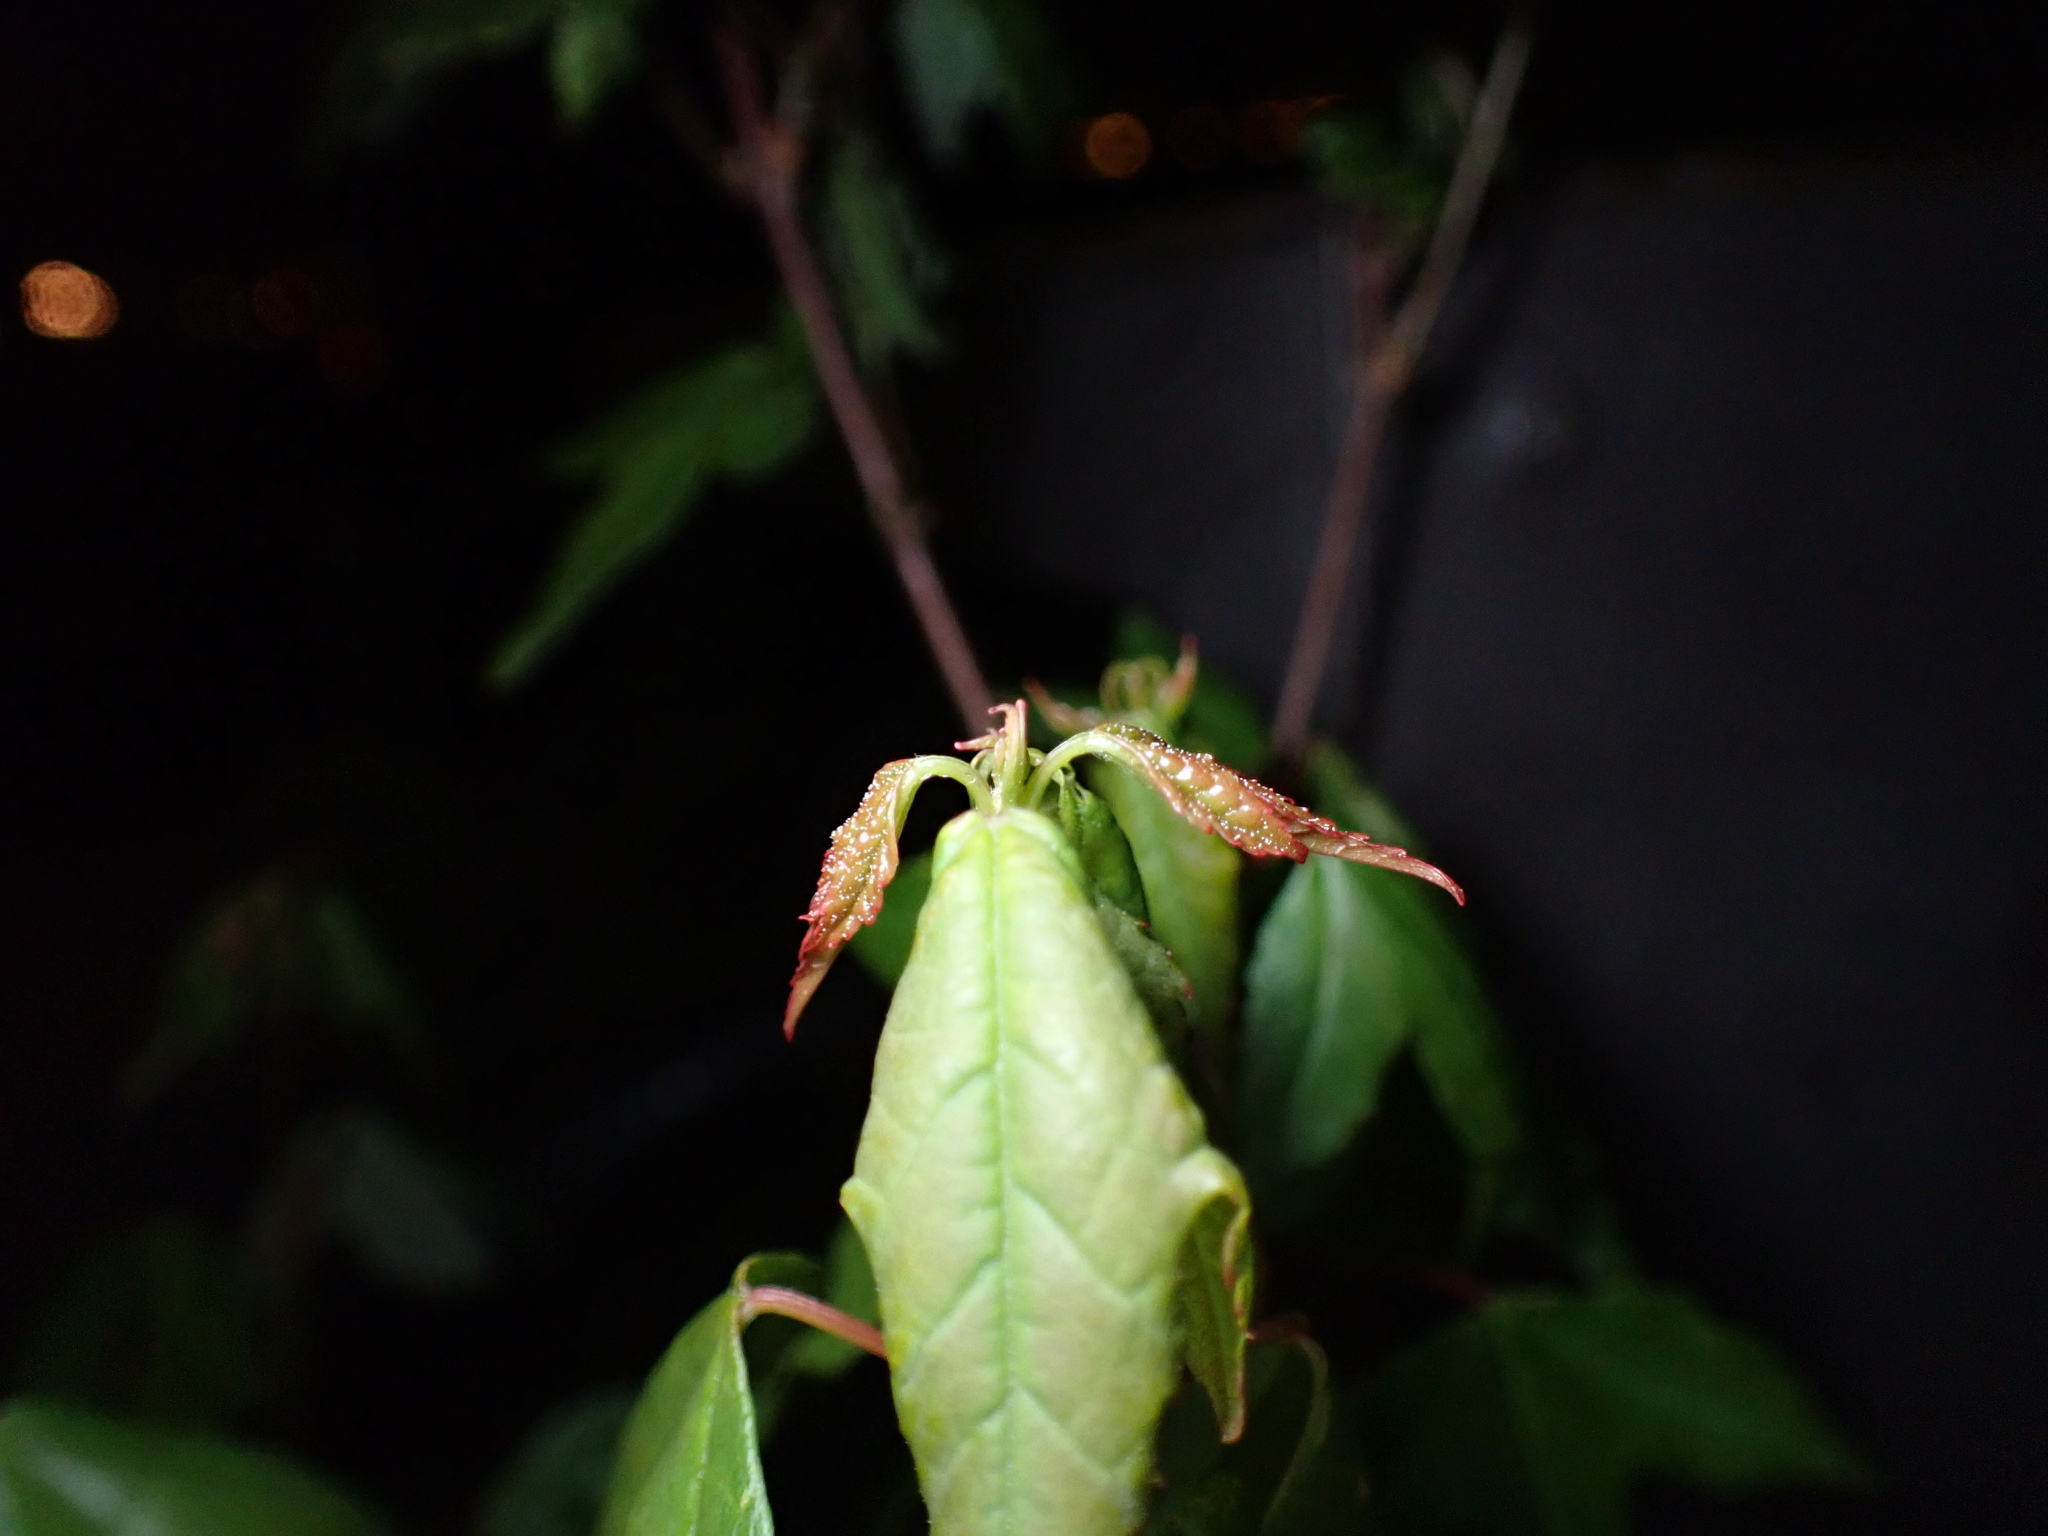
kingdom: Plantae
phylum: Tracheophyta
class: Magnoliopsida
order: Sapindales
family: Sapindaceae
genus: Acer
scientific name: Acer tataricum
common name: Tartar maple
